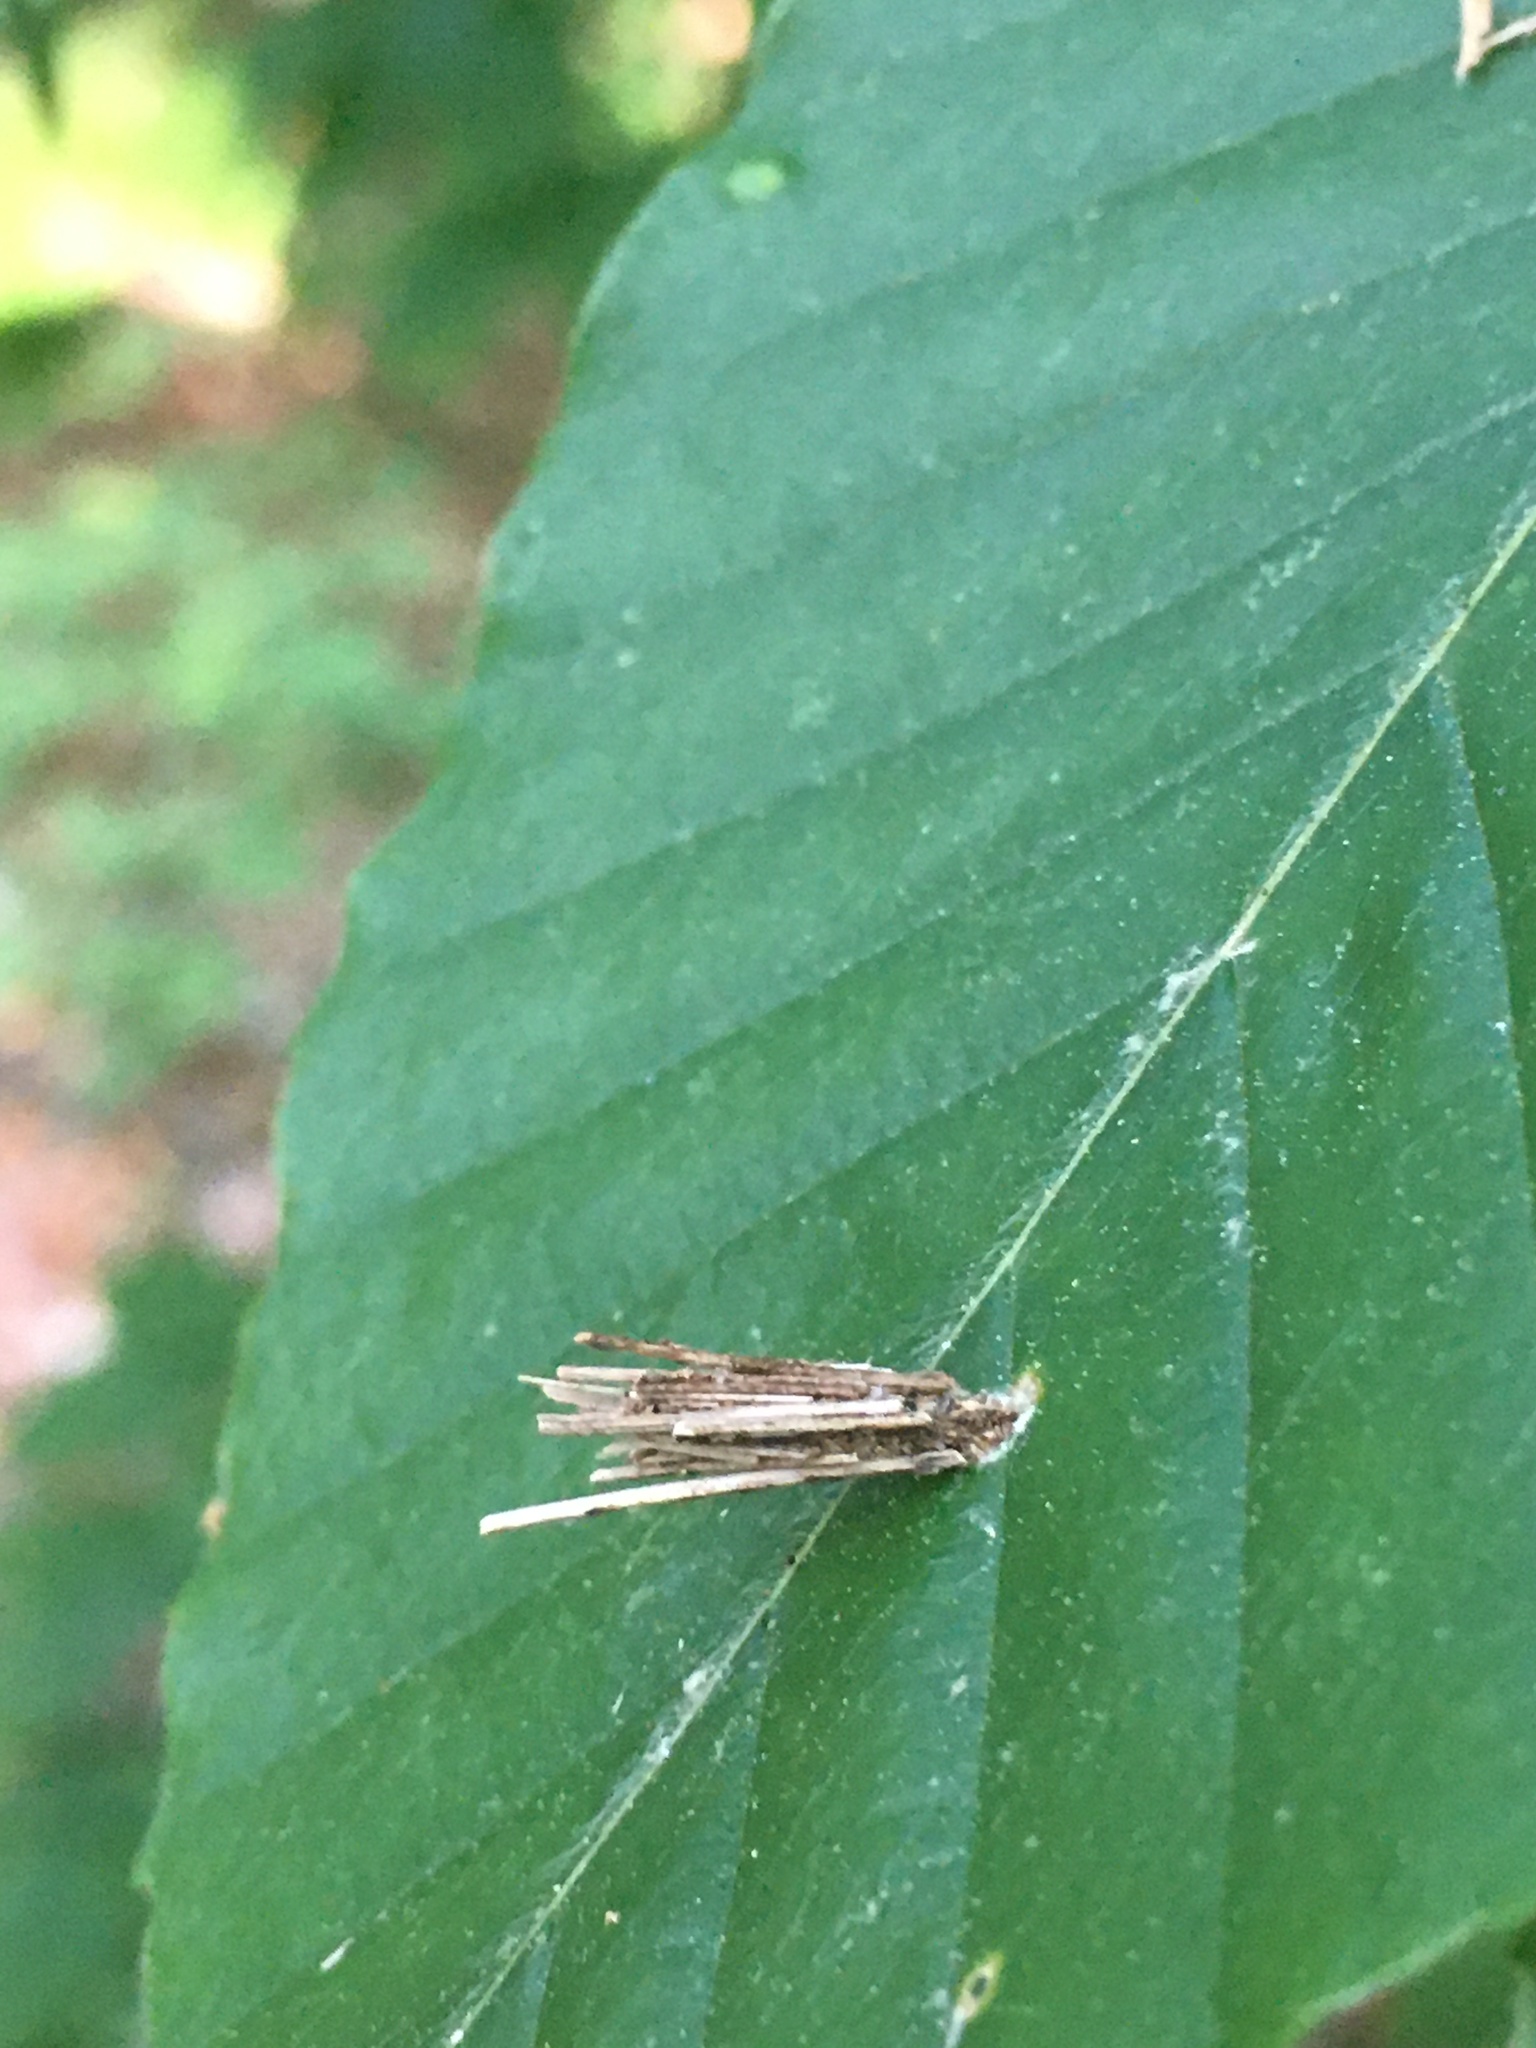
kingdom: Animalia
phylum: Arthropoda
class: Insecta
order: Lepidoptera
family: Psychidae
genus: Psyche
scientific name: Psyche casta
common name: Common sweep
